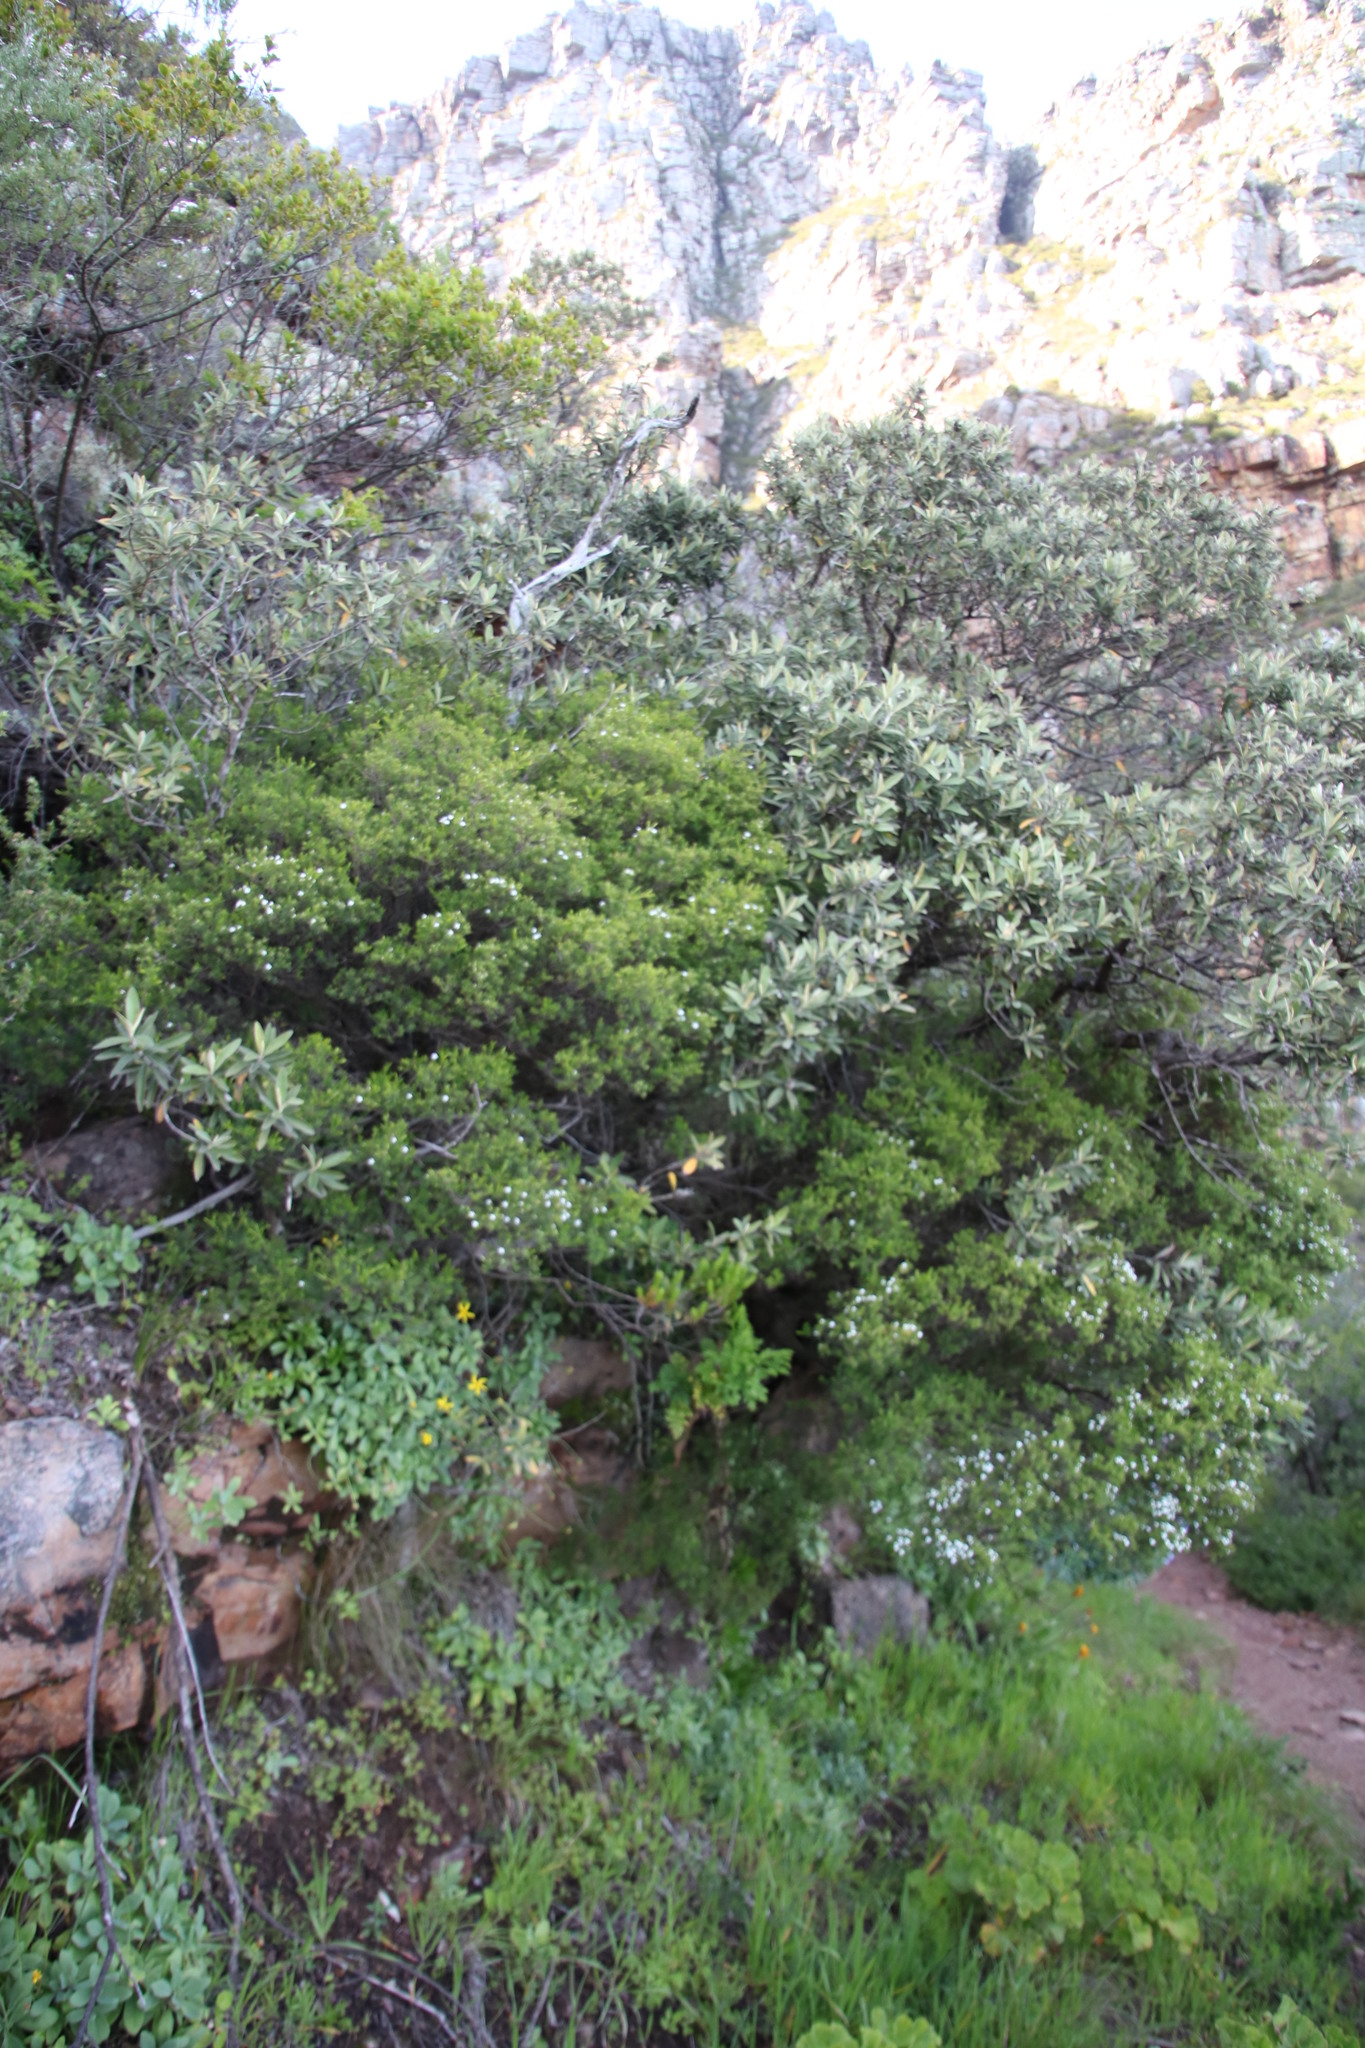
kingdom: Plantae
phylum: Tracheophyta
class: Magnoliopsida
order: Sapindales
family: Rutaceae
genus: Coleonema
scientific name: Coleonema album
